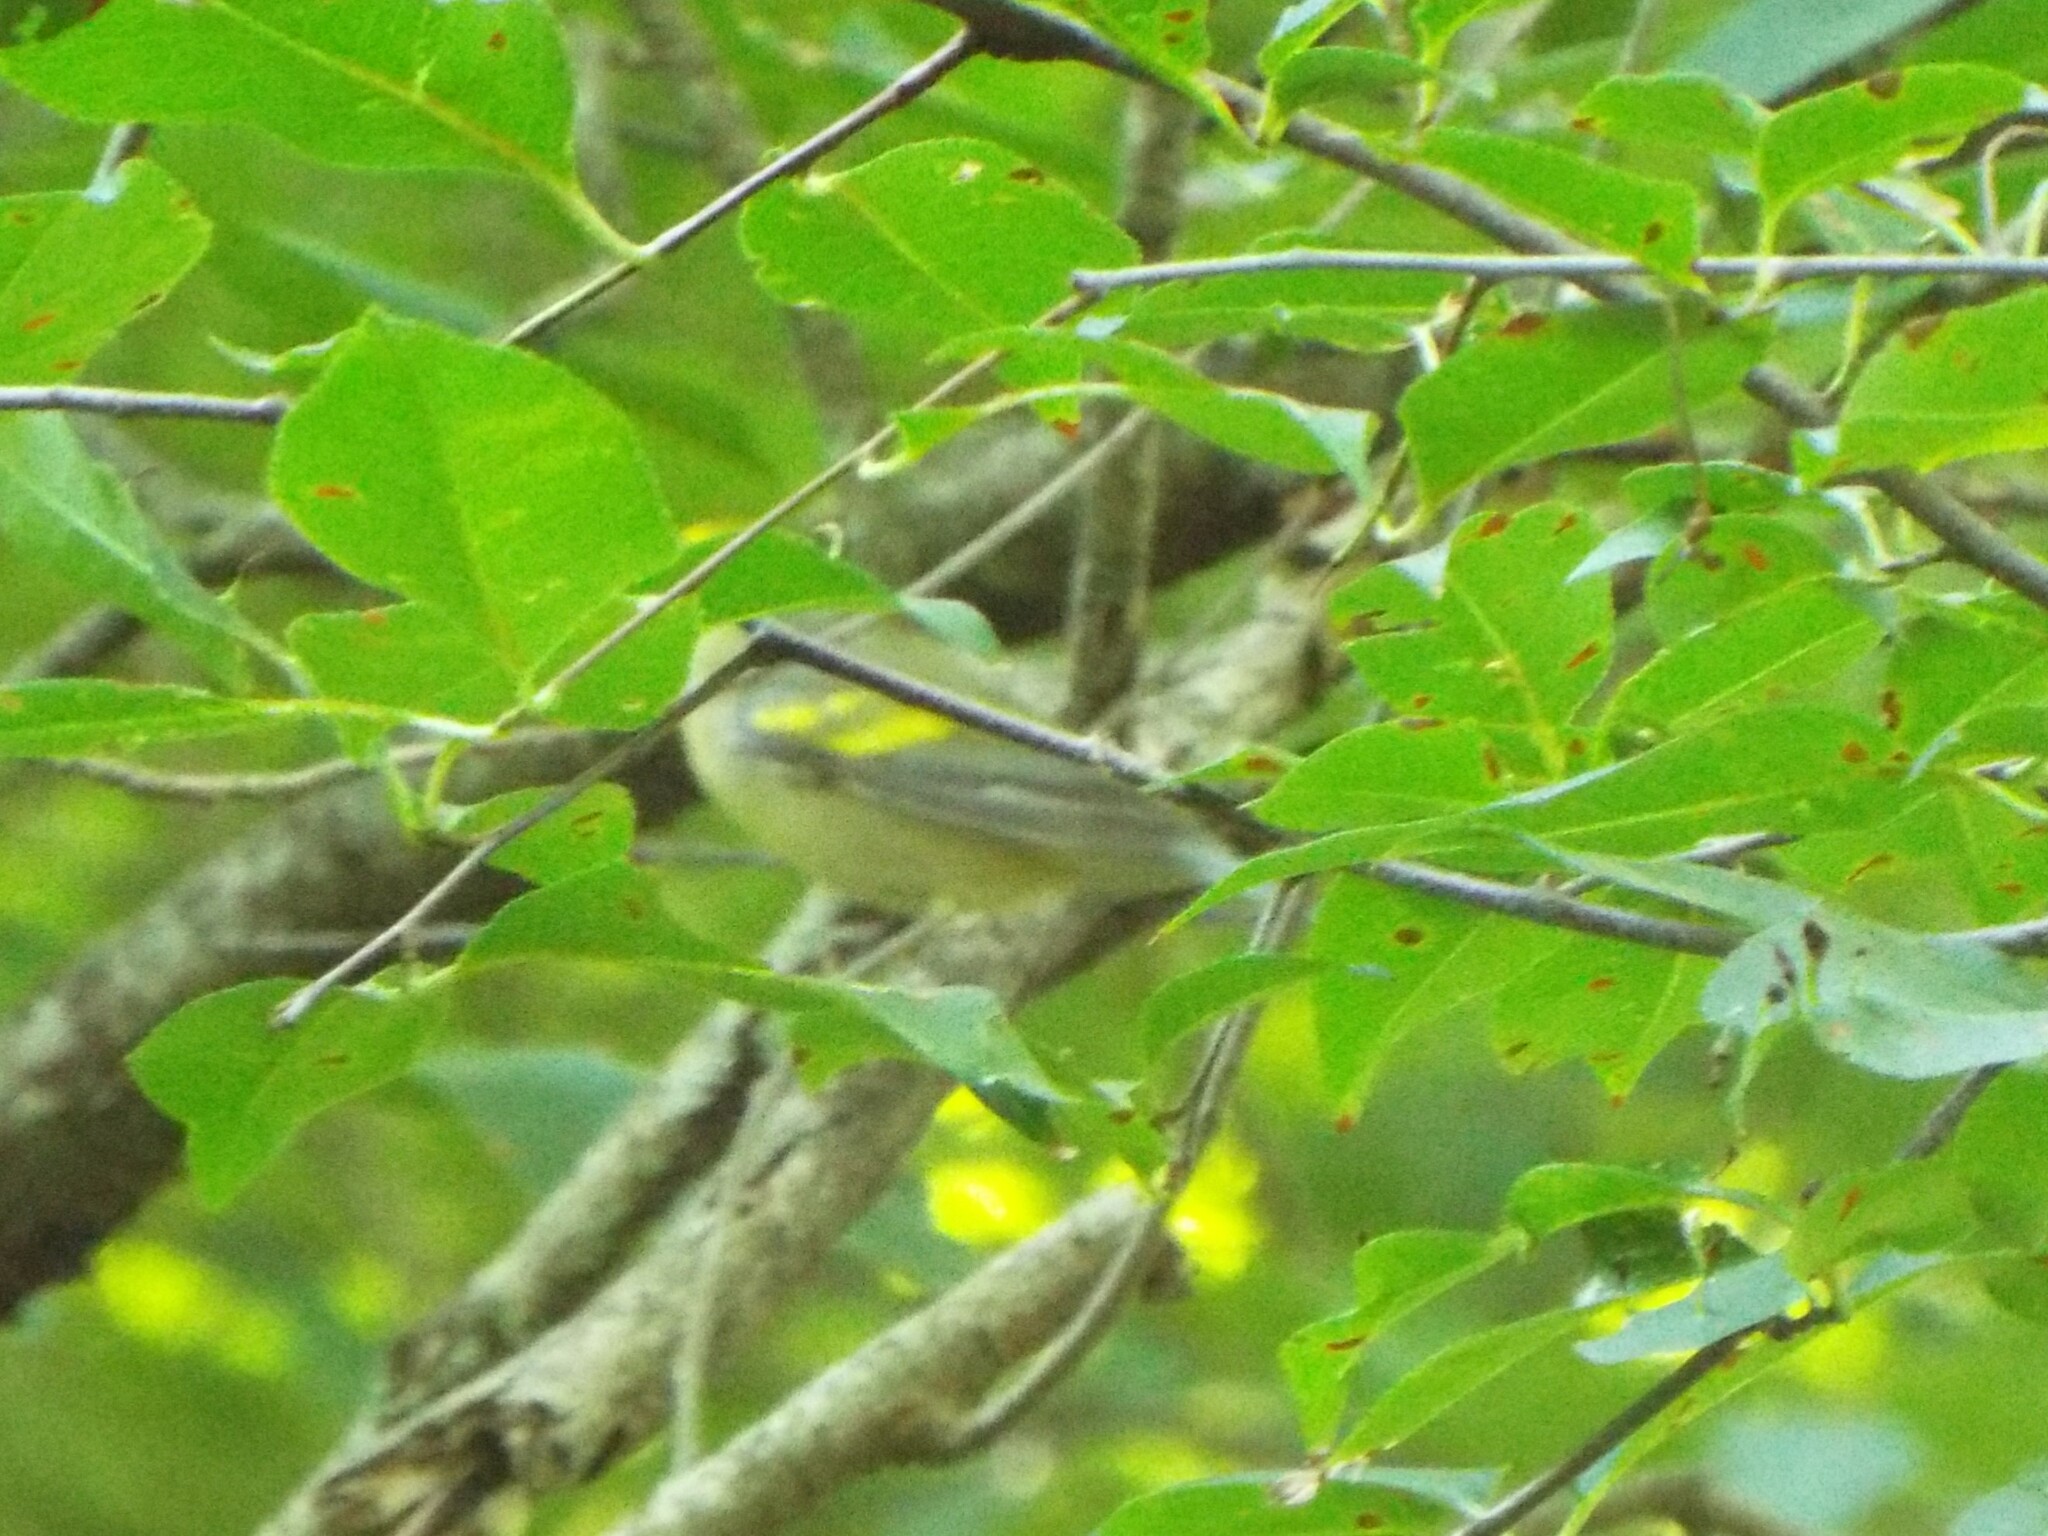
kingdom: Animalia
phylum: Chordata
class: Aves
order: Passeriformes
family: Parulidae
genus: Vermivora
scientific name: Vermivora
